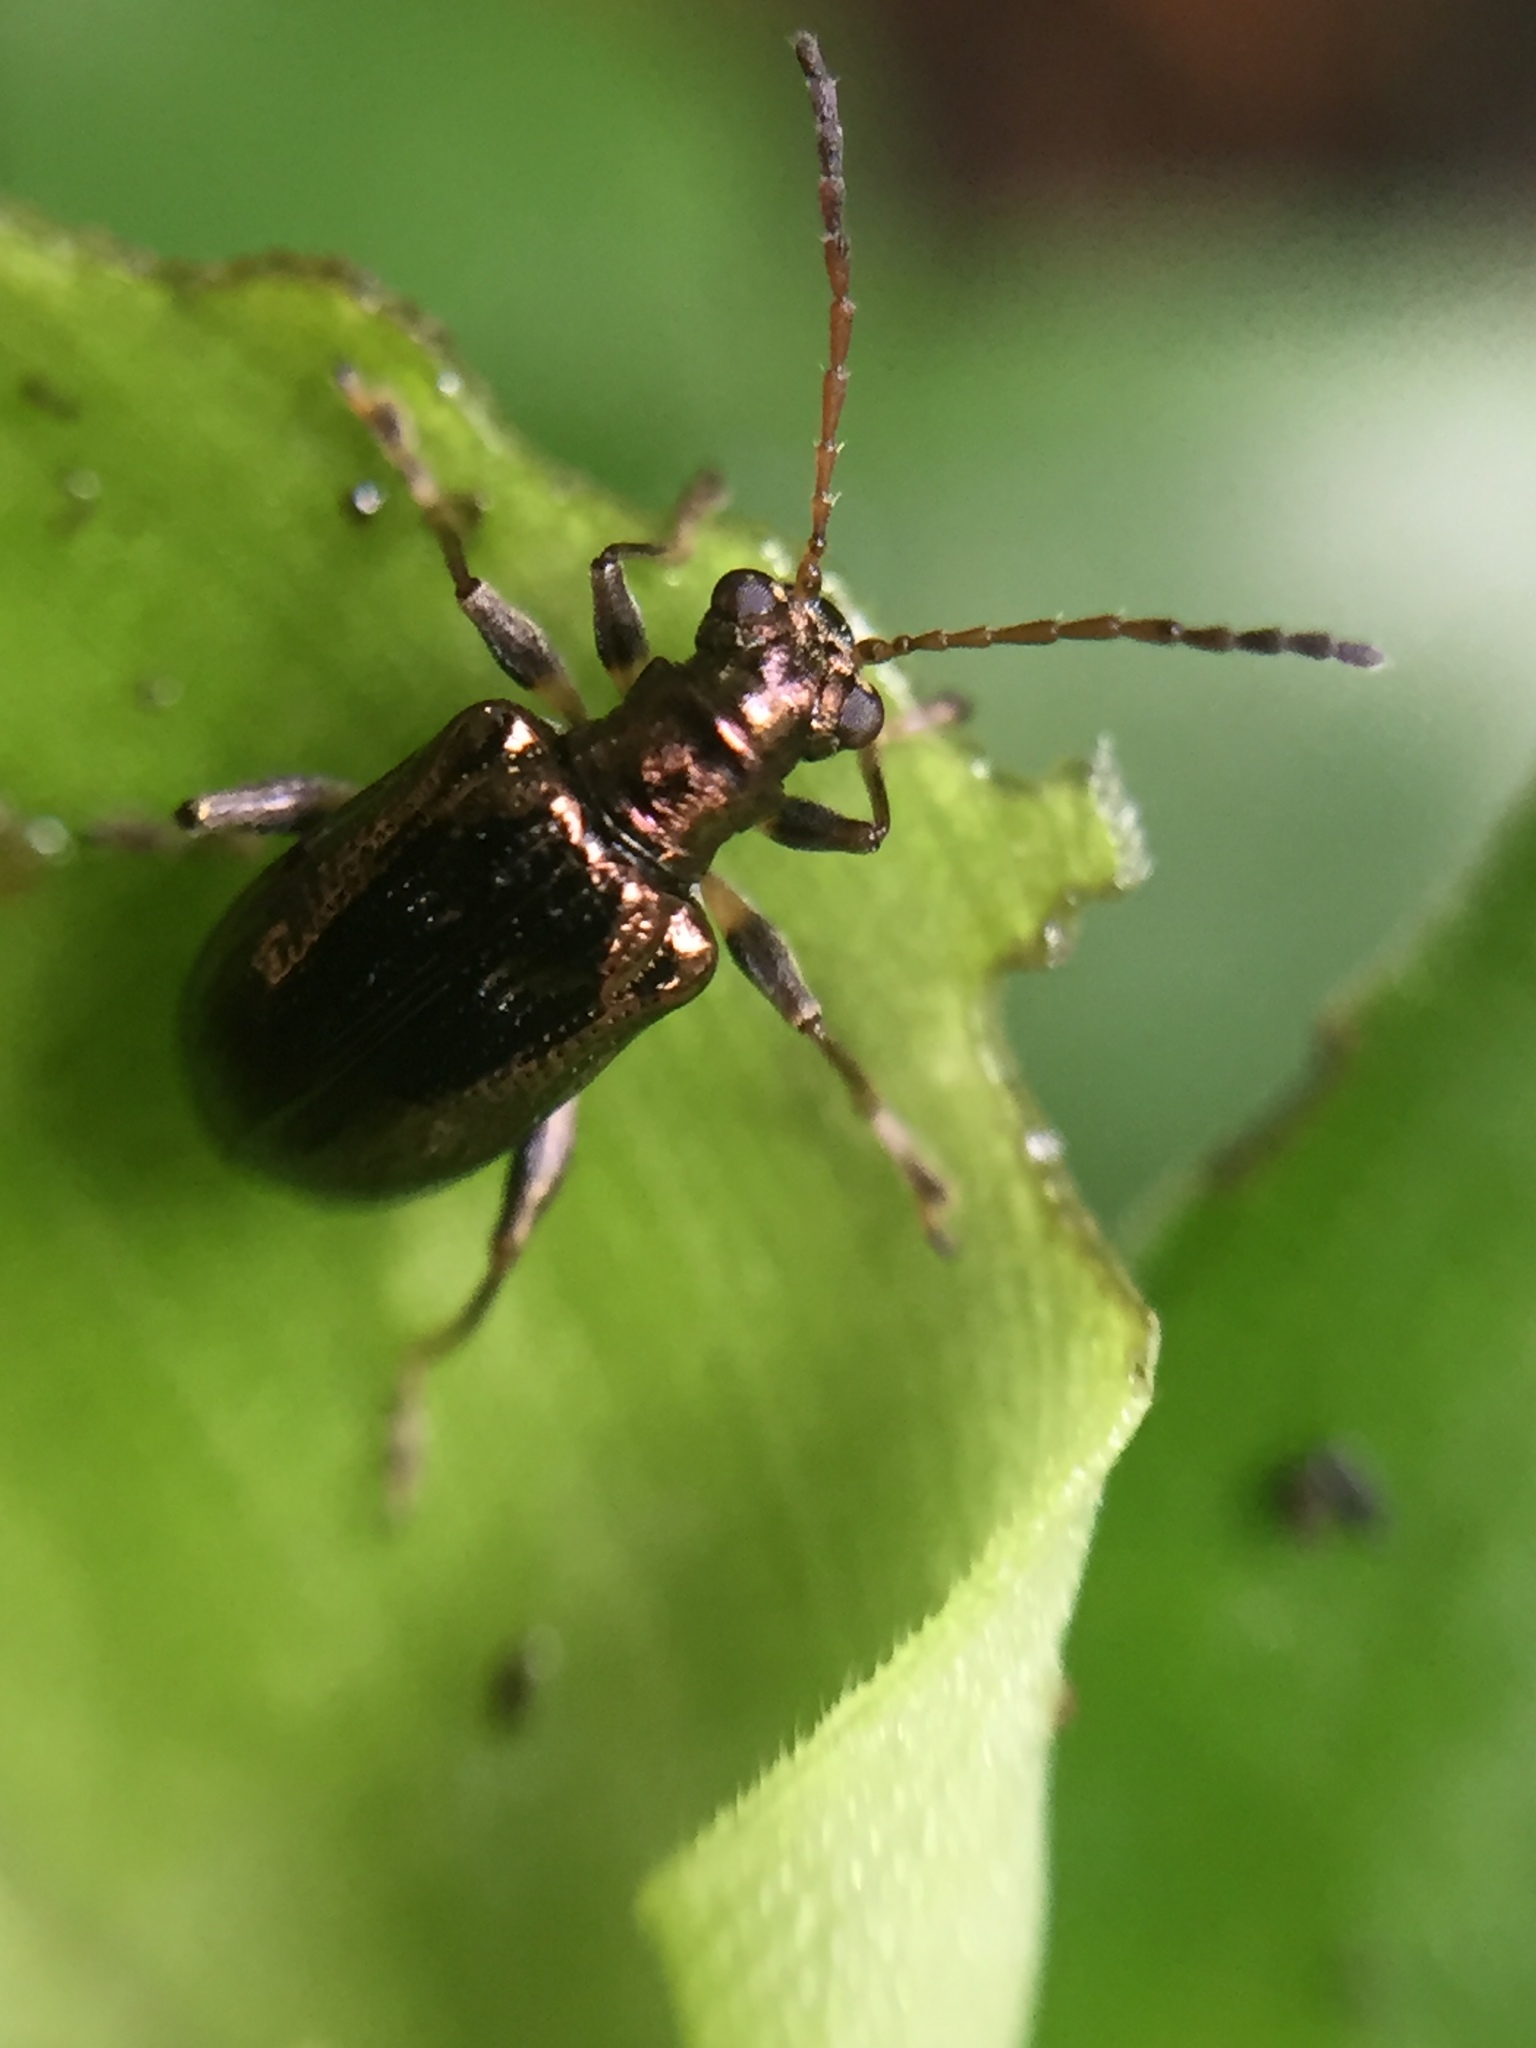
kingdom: Animalia
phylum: Arthropoda
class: Insecta
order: Coleoptera
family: Chrysomelidae
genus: Neolema
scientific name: Neolema ogloblini
